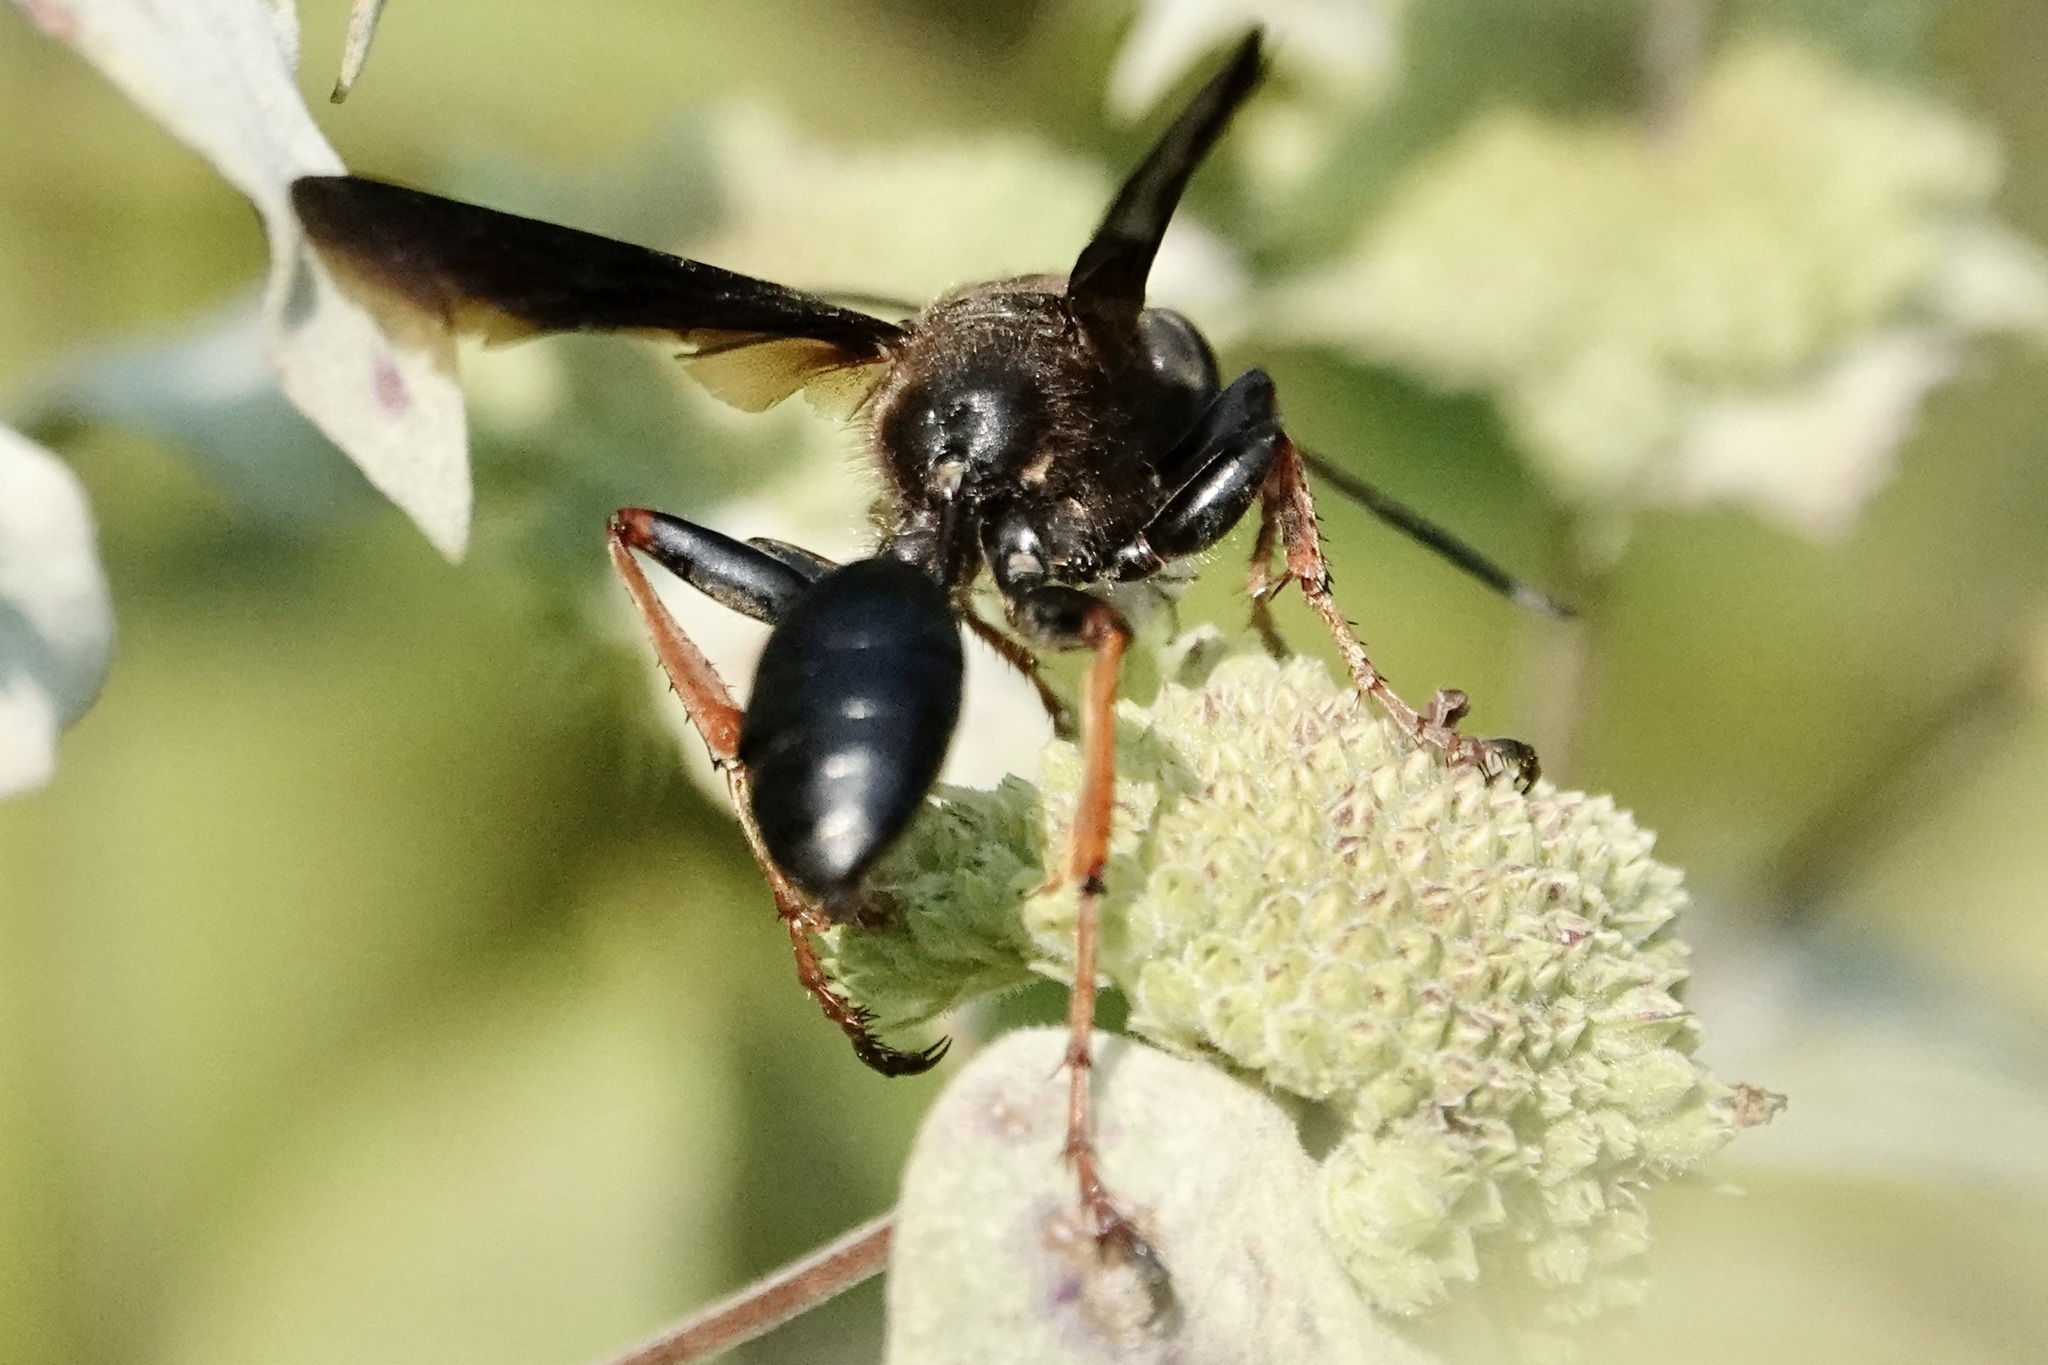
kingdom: Animalia
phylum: Arthropoda
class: Insecta
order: Hymenoptera
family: Sphecidae
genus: Isodontia
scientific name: Isodontia auripes
